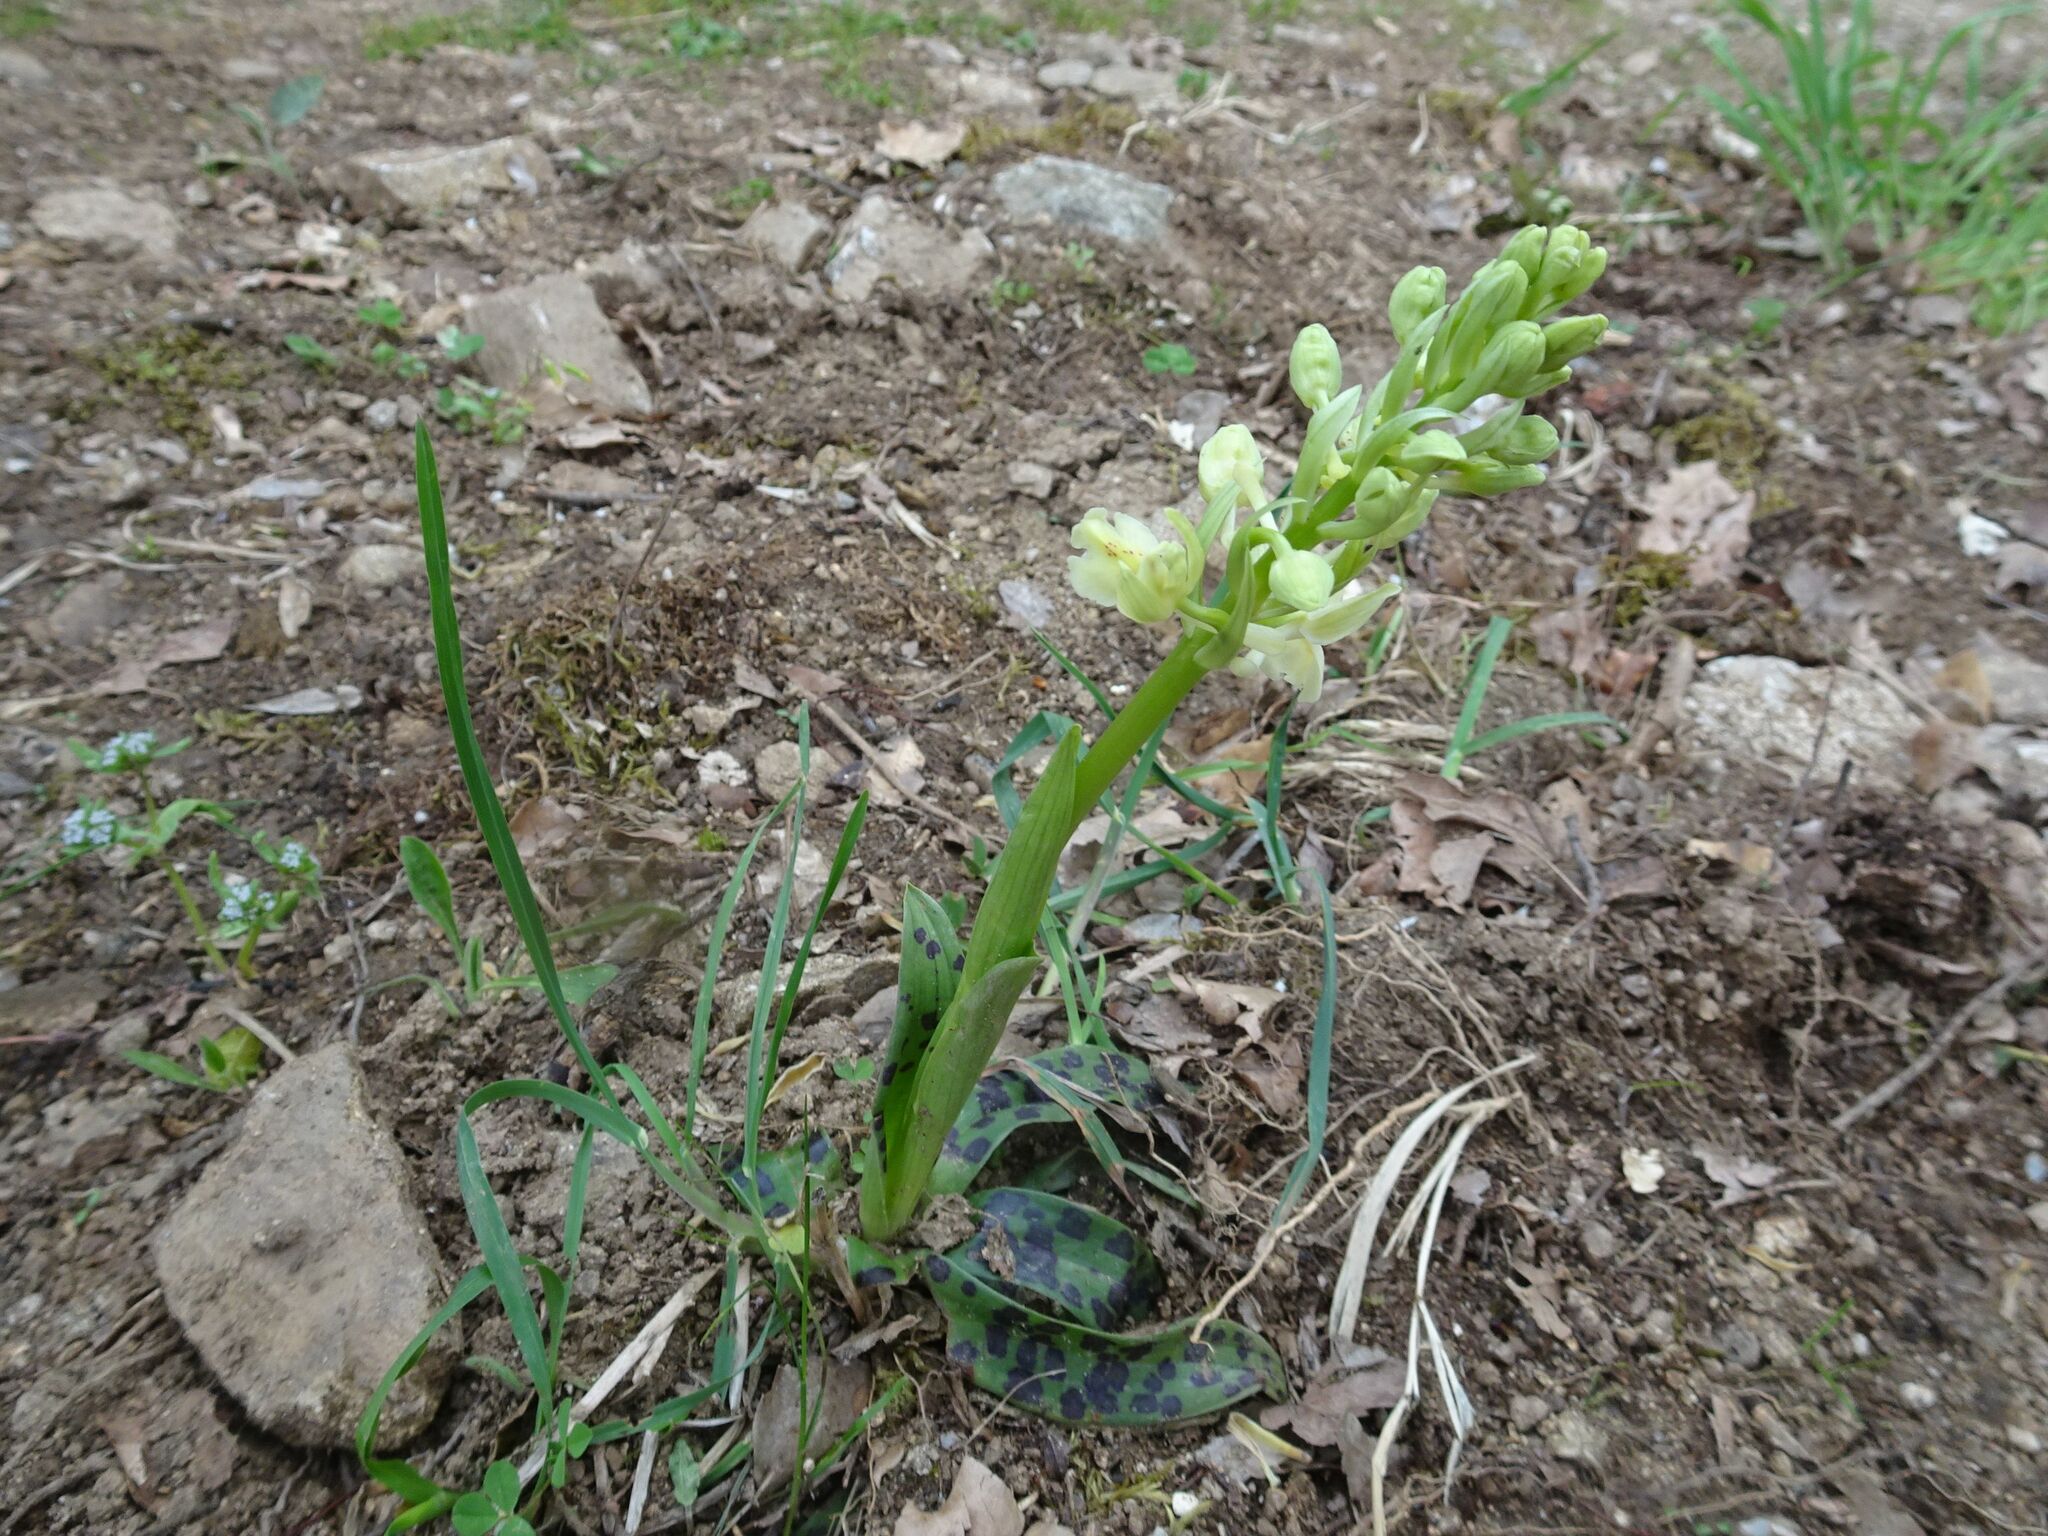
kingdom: Plantae
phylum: Tracheophyta
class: Liliopsida
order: Asparagales
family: Orchidaceae
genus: Orchis
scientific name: Orchis provincialis
